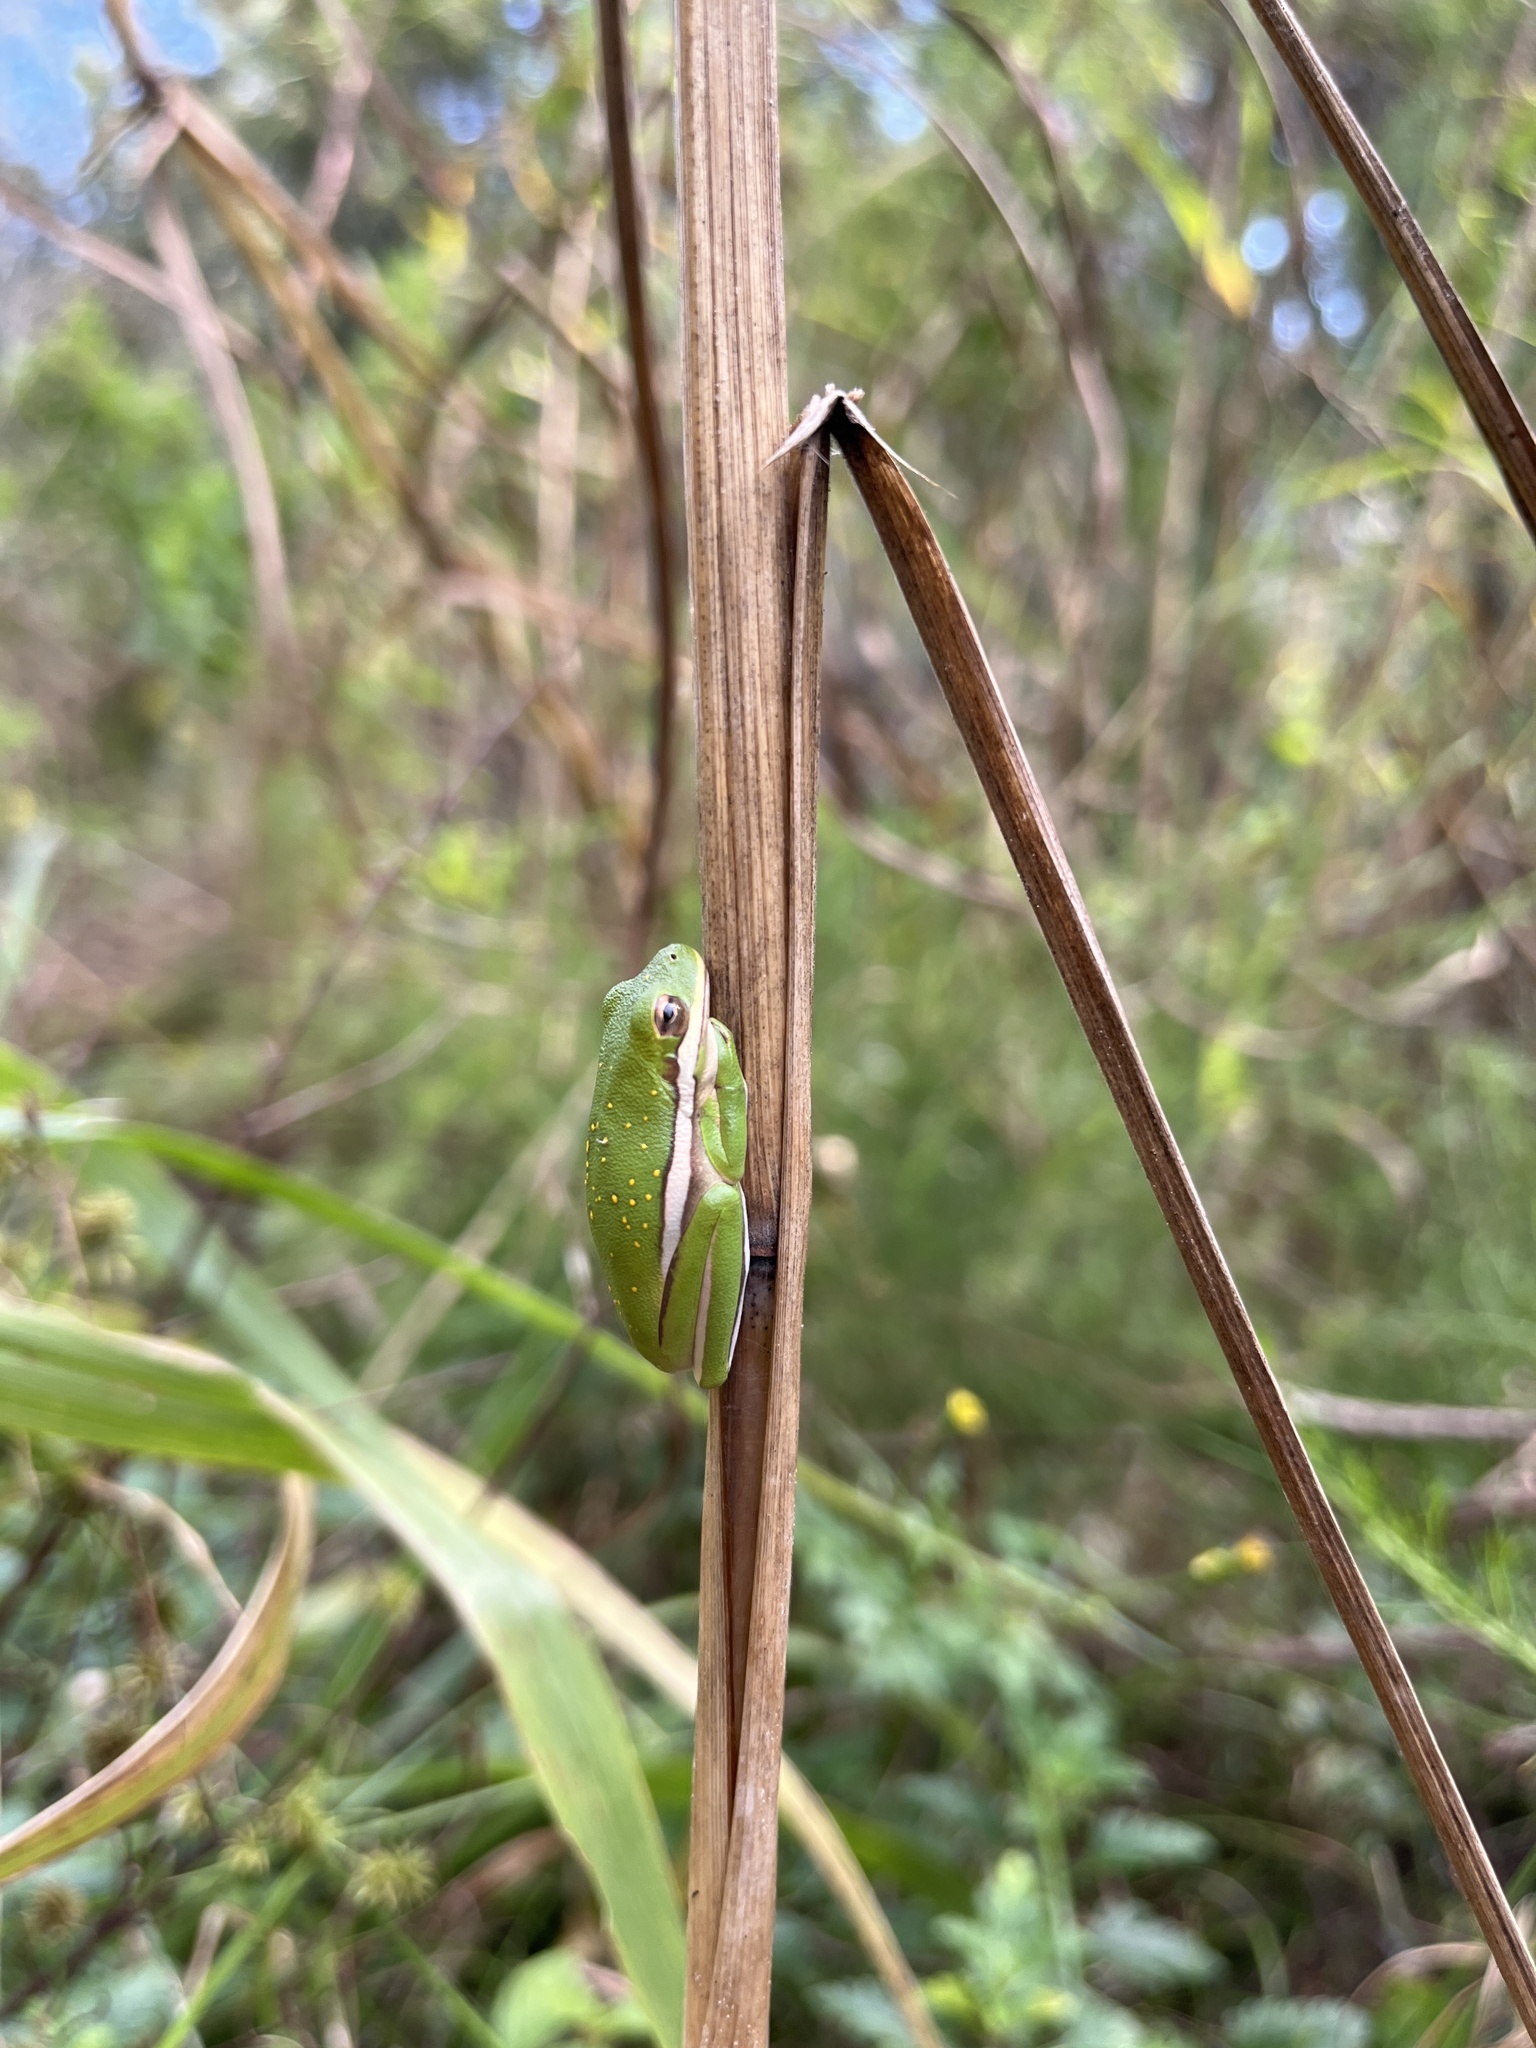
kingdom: Animalia
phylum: Chordata
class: Amphibia
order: Anura
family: Hylidae
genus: Dryophytes
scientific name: Dryophytes cinereus
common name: Green treefrog
